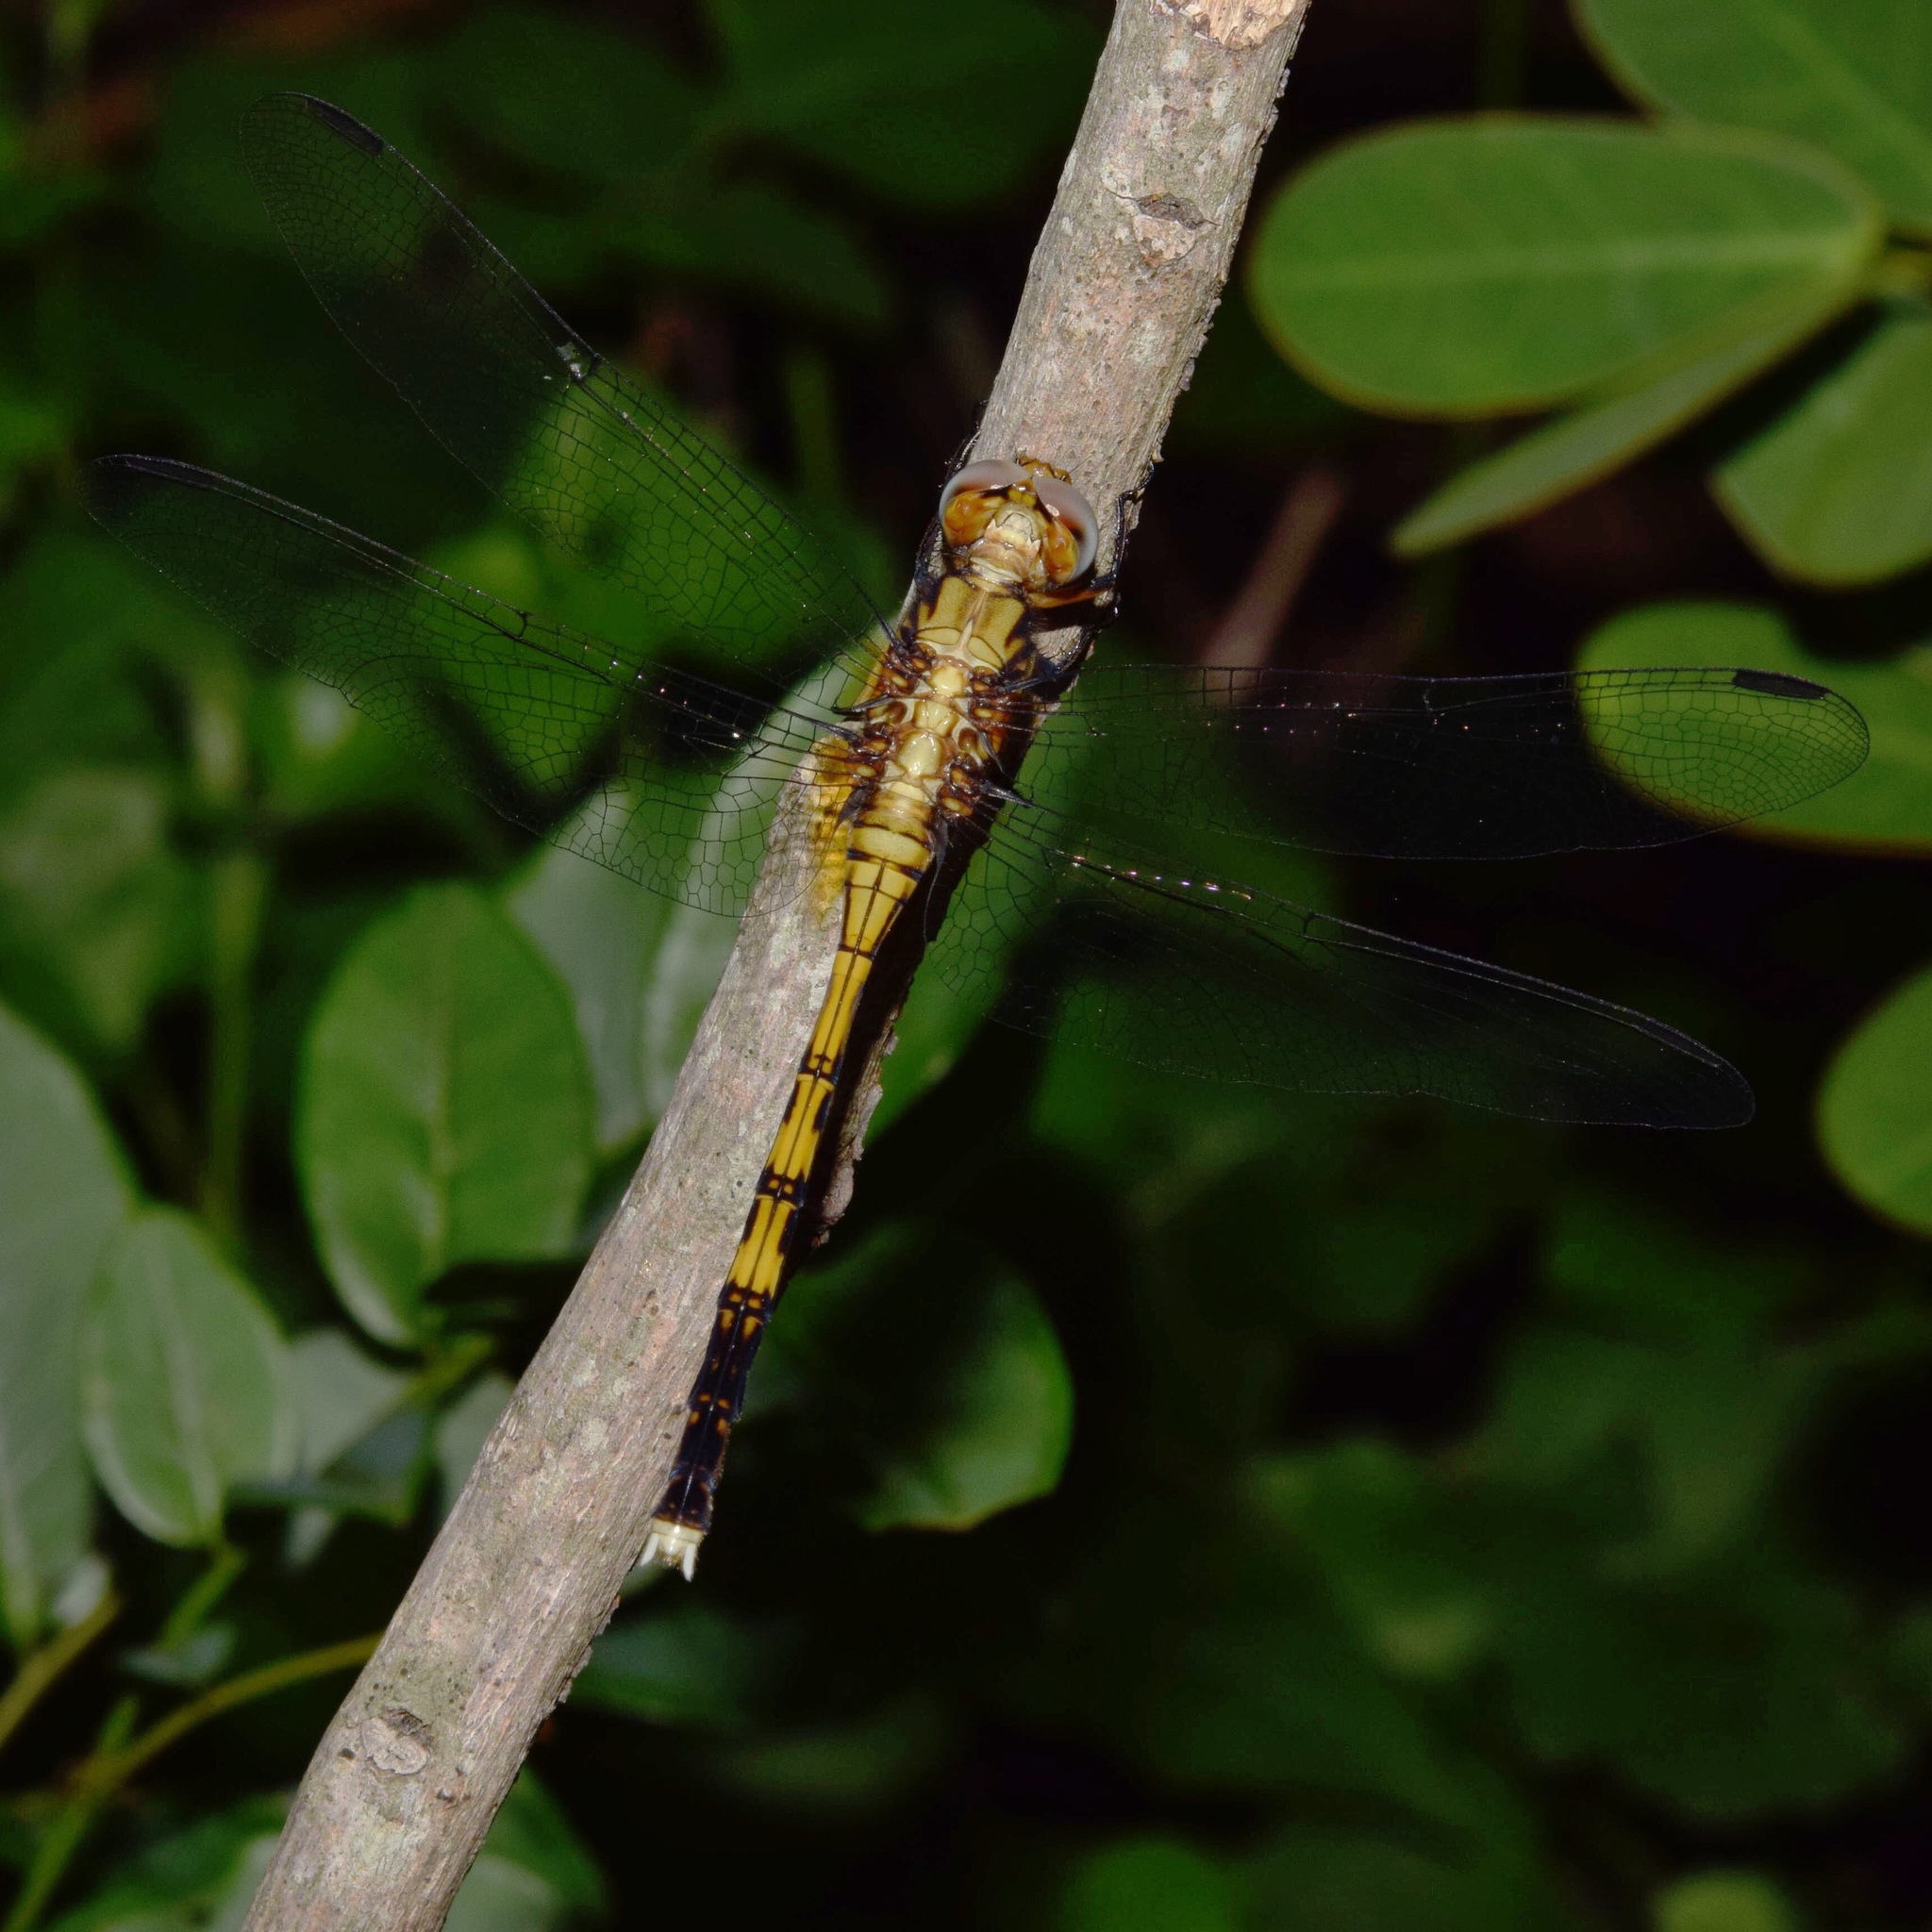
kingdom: Animalia
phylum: Arthropoda
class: Insecta
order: Odonata
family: Libellulidae
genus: Orthetrum
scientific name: Orthetrum julia
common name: Julia skimmer
